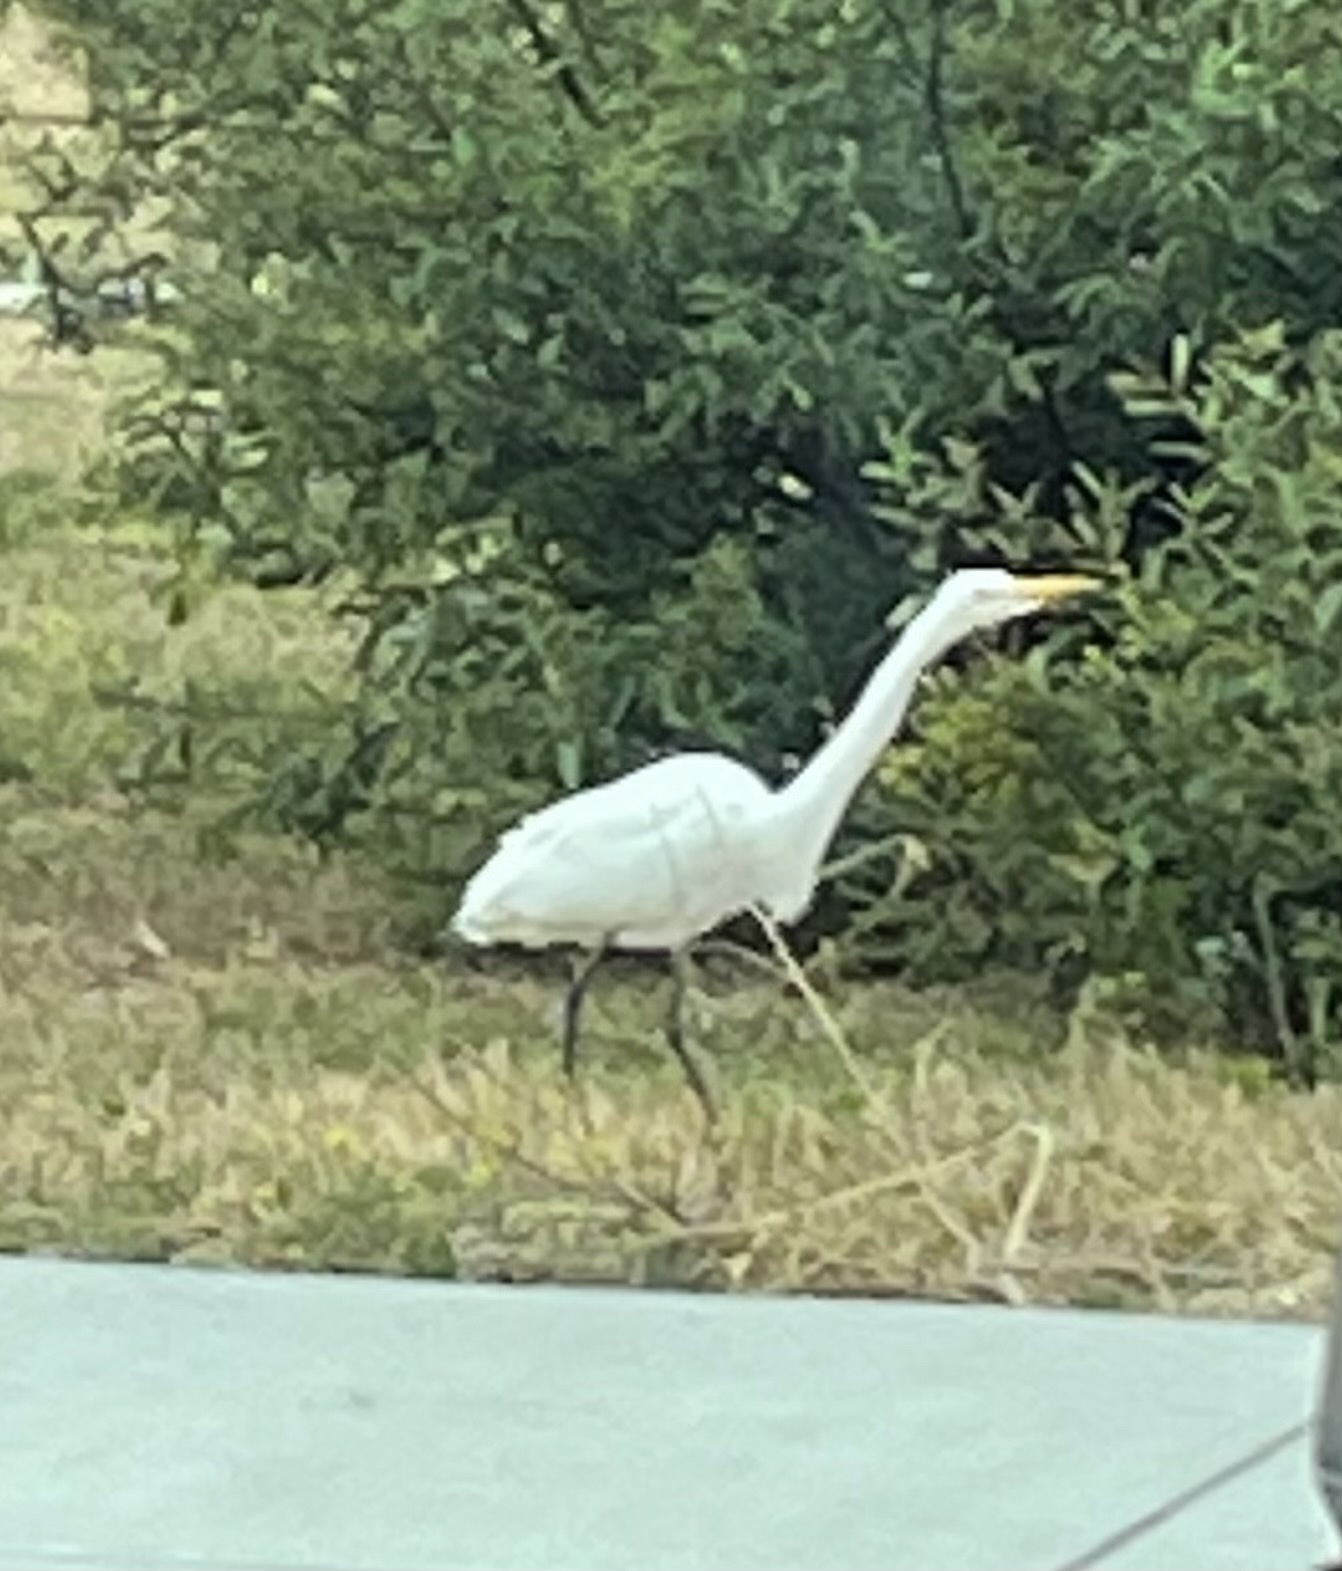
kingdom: Animalia
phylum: Chordata
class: Aves
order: Pelecaniformes
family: Ardeidae
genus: Ardea
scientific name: Ardea alba
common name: Great egret
